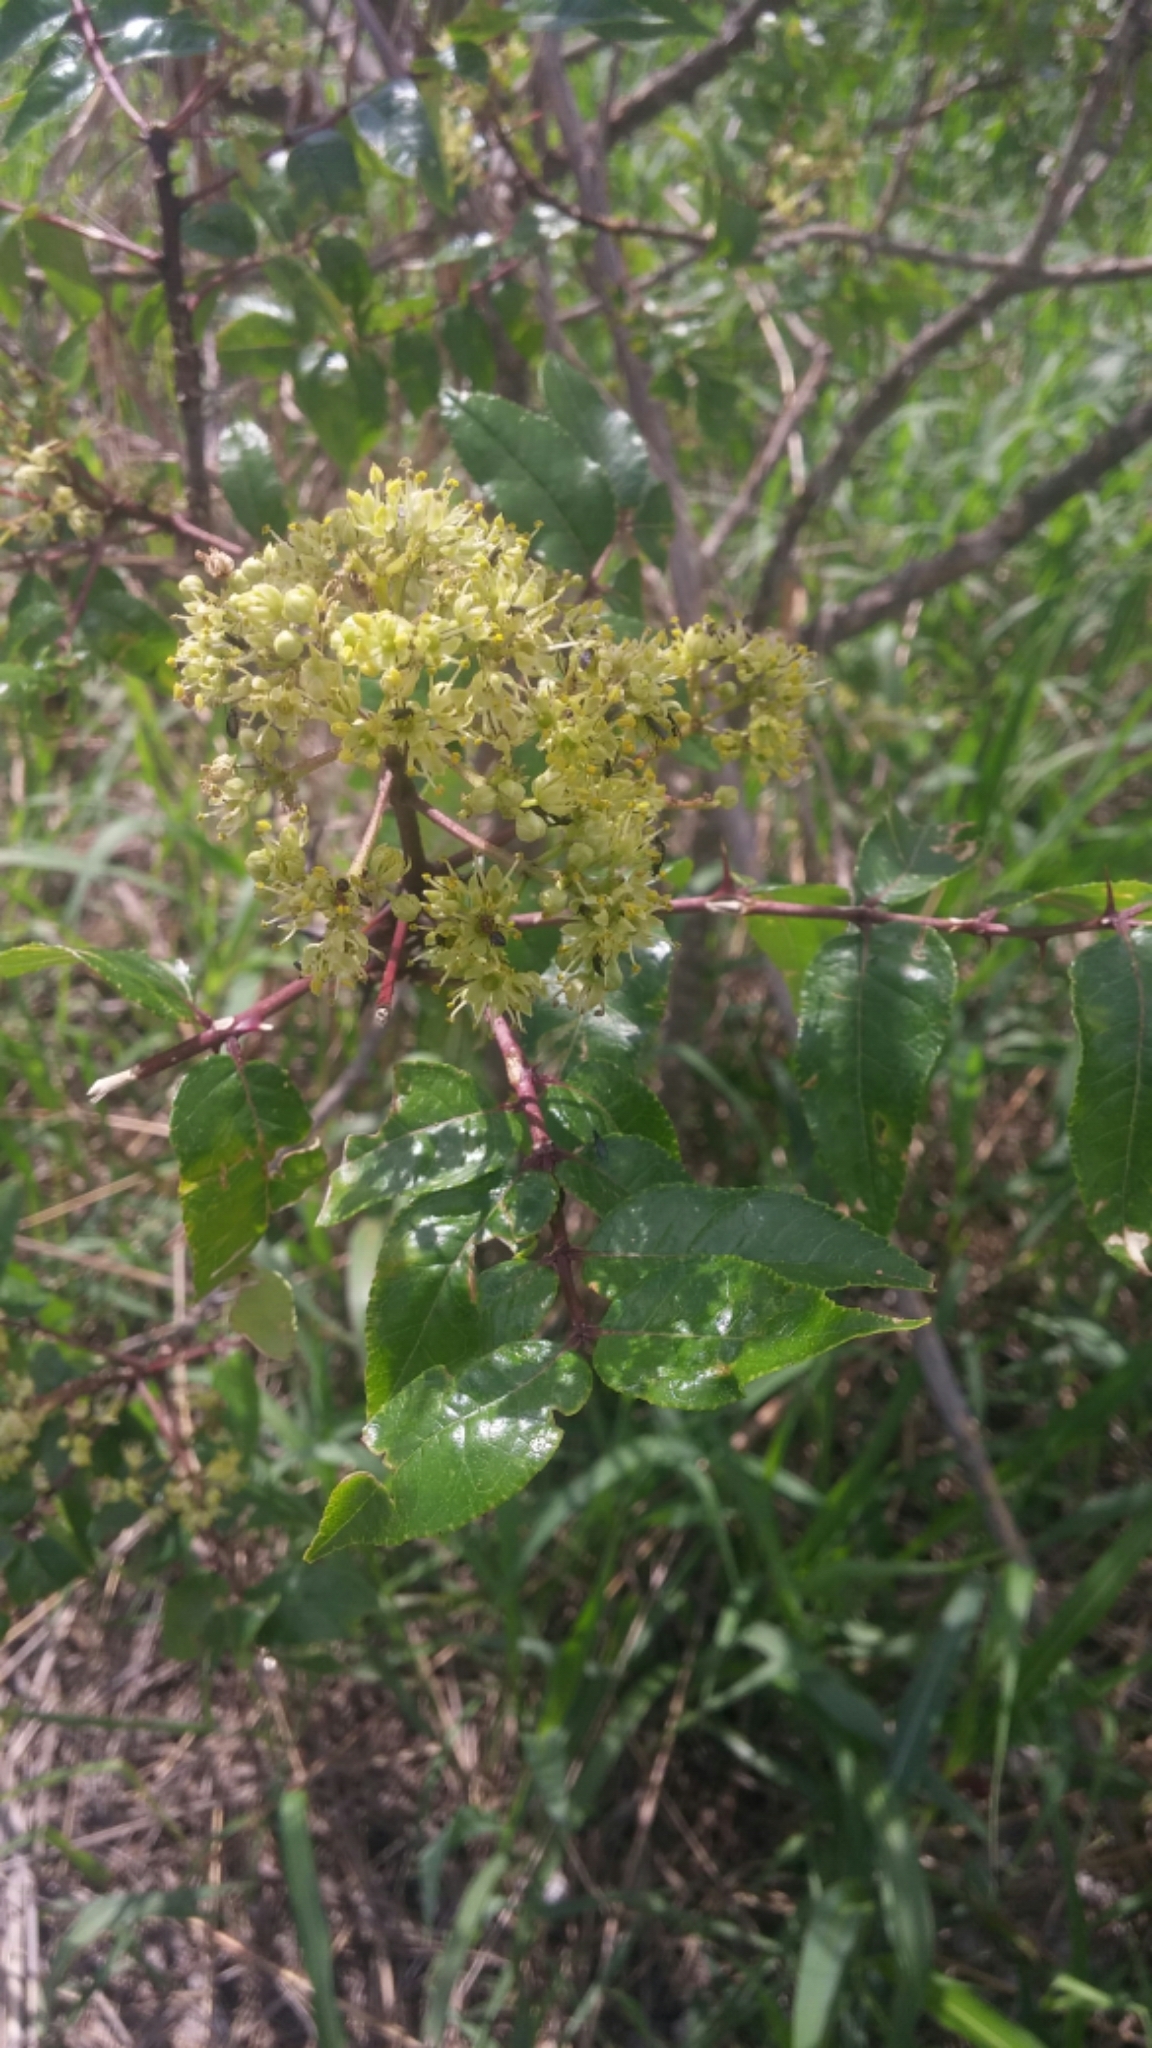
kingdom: Plantae
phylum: Tracheophyta
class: Magnoliopsida
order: Sapindales
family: Rutaceae
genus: Zanthoxylum
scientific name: Zanthoxylum clava-herculis
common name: Hercules'-club
